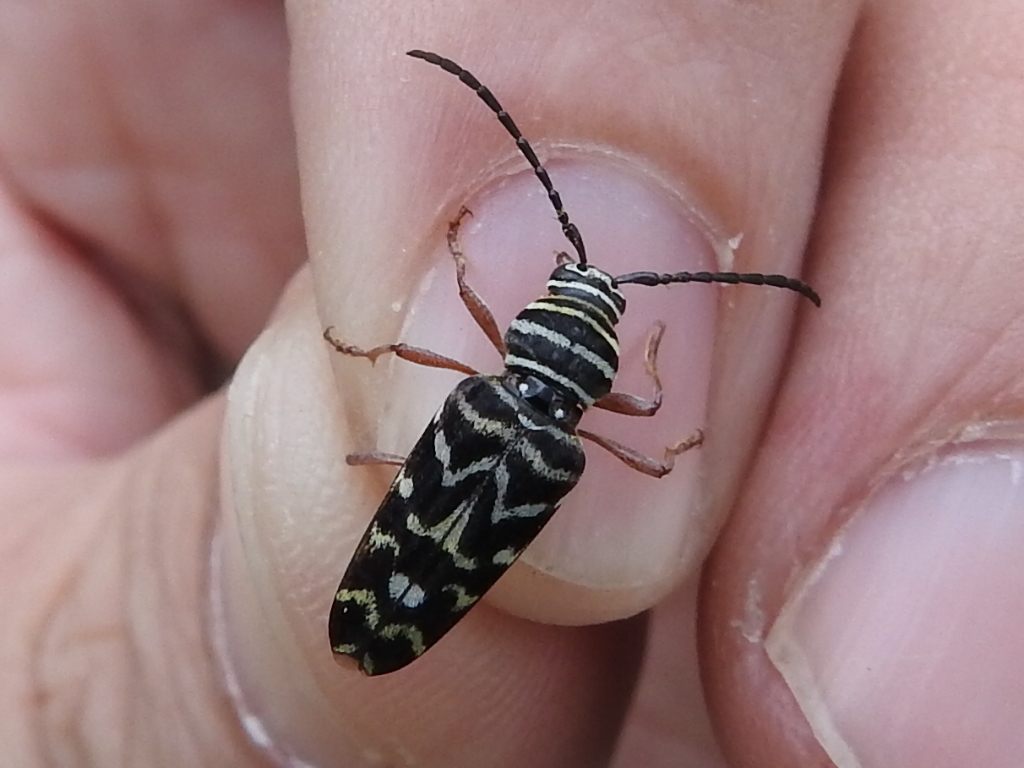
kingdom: Animalia
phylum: Arthropoda
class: Insecta
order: Coleoptera
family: Cerambycidae
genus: Megacyllene
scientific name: Megacyllene caryae
